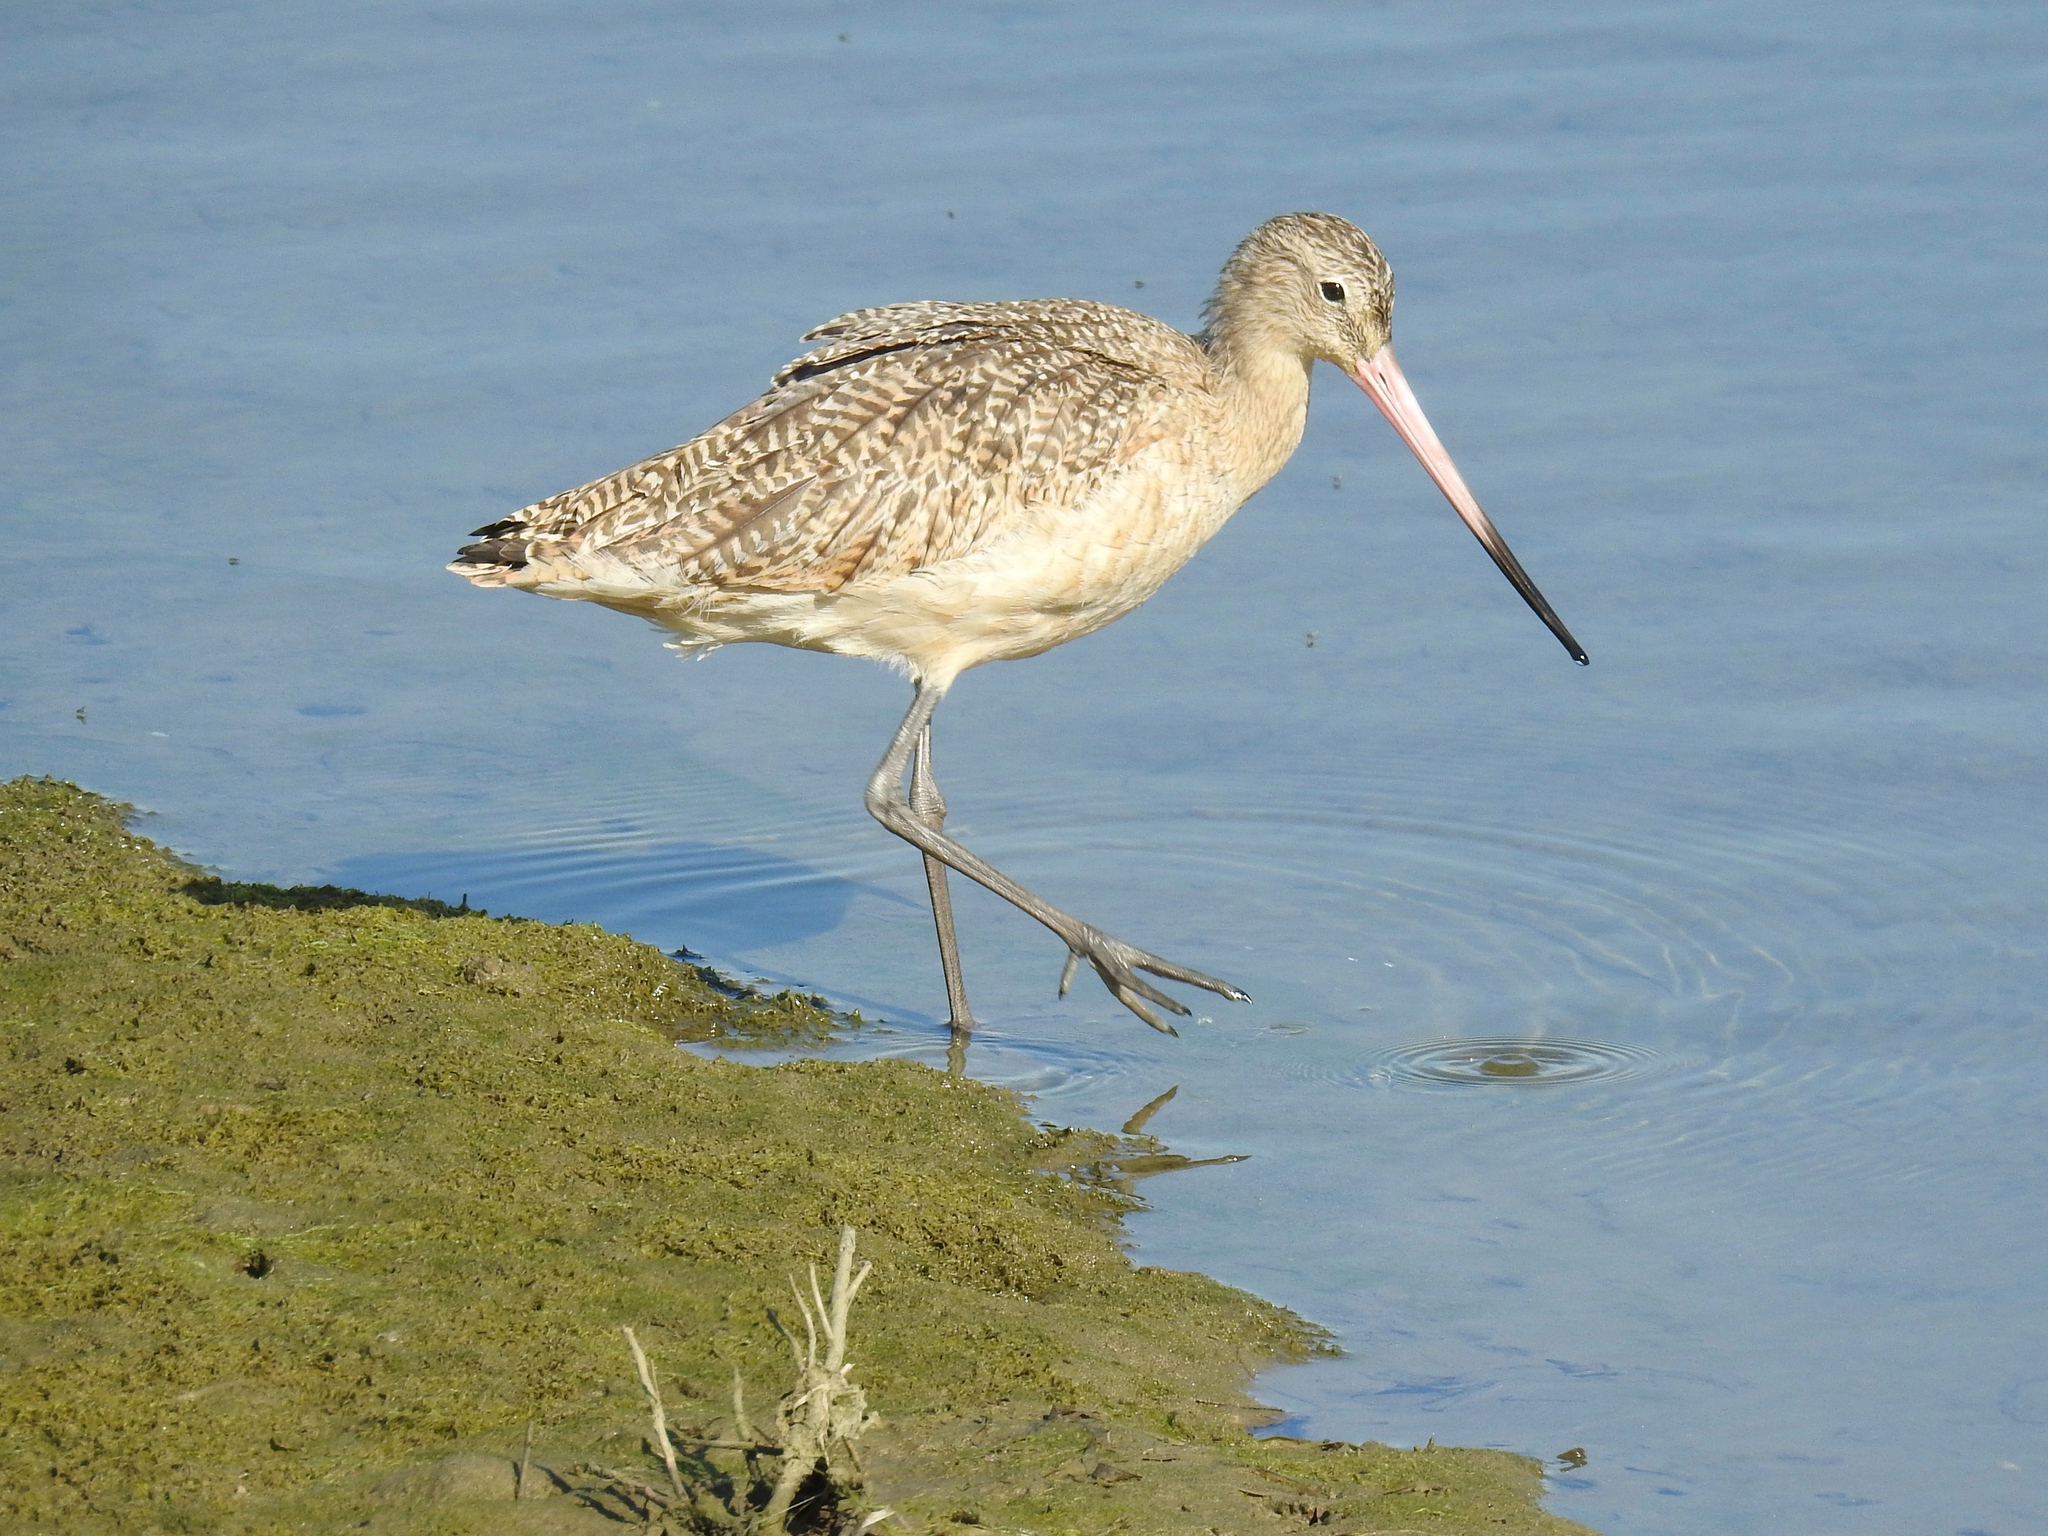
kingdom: Animalia
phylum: Chordata
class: Aves
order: Charadriiformes
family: Scolopacidae
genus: Limosa
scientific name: Limosa fedoa
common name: Marbled godwit
